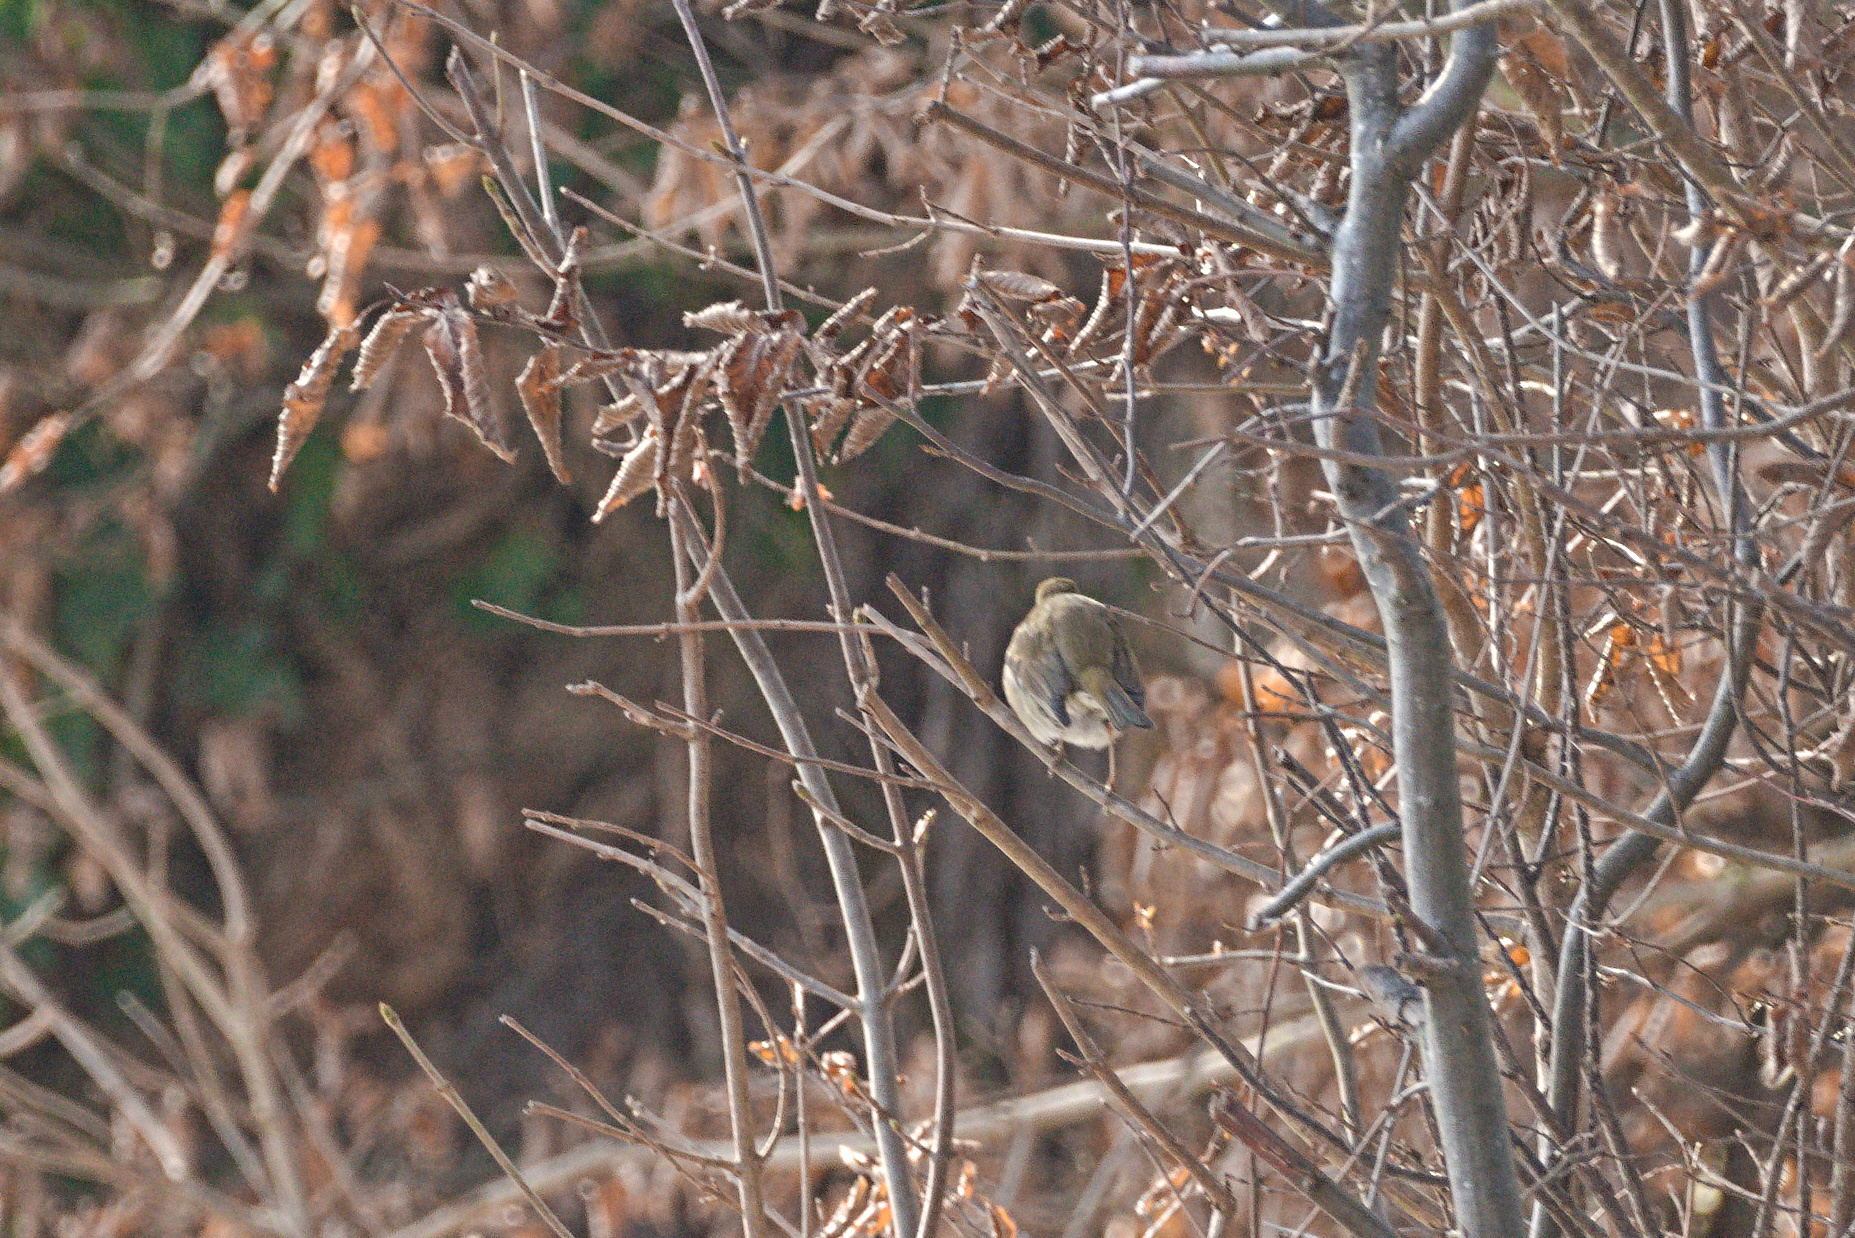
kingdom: Animalia
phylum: Chordata
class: Aves
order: Passeriformes
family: Muscicapidae
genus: Erithacus
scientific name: Erithacus rubecula
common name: European robin
